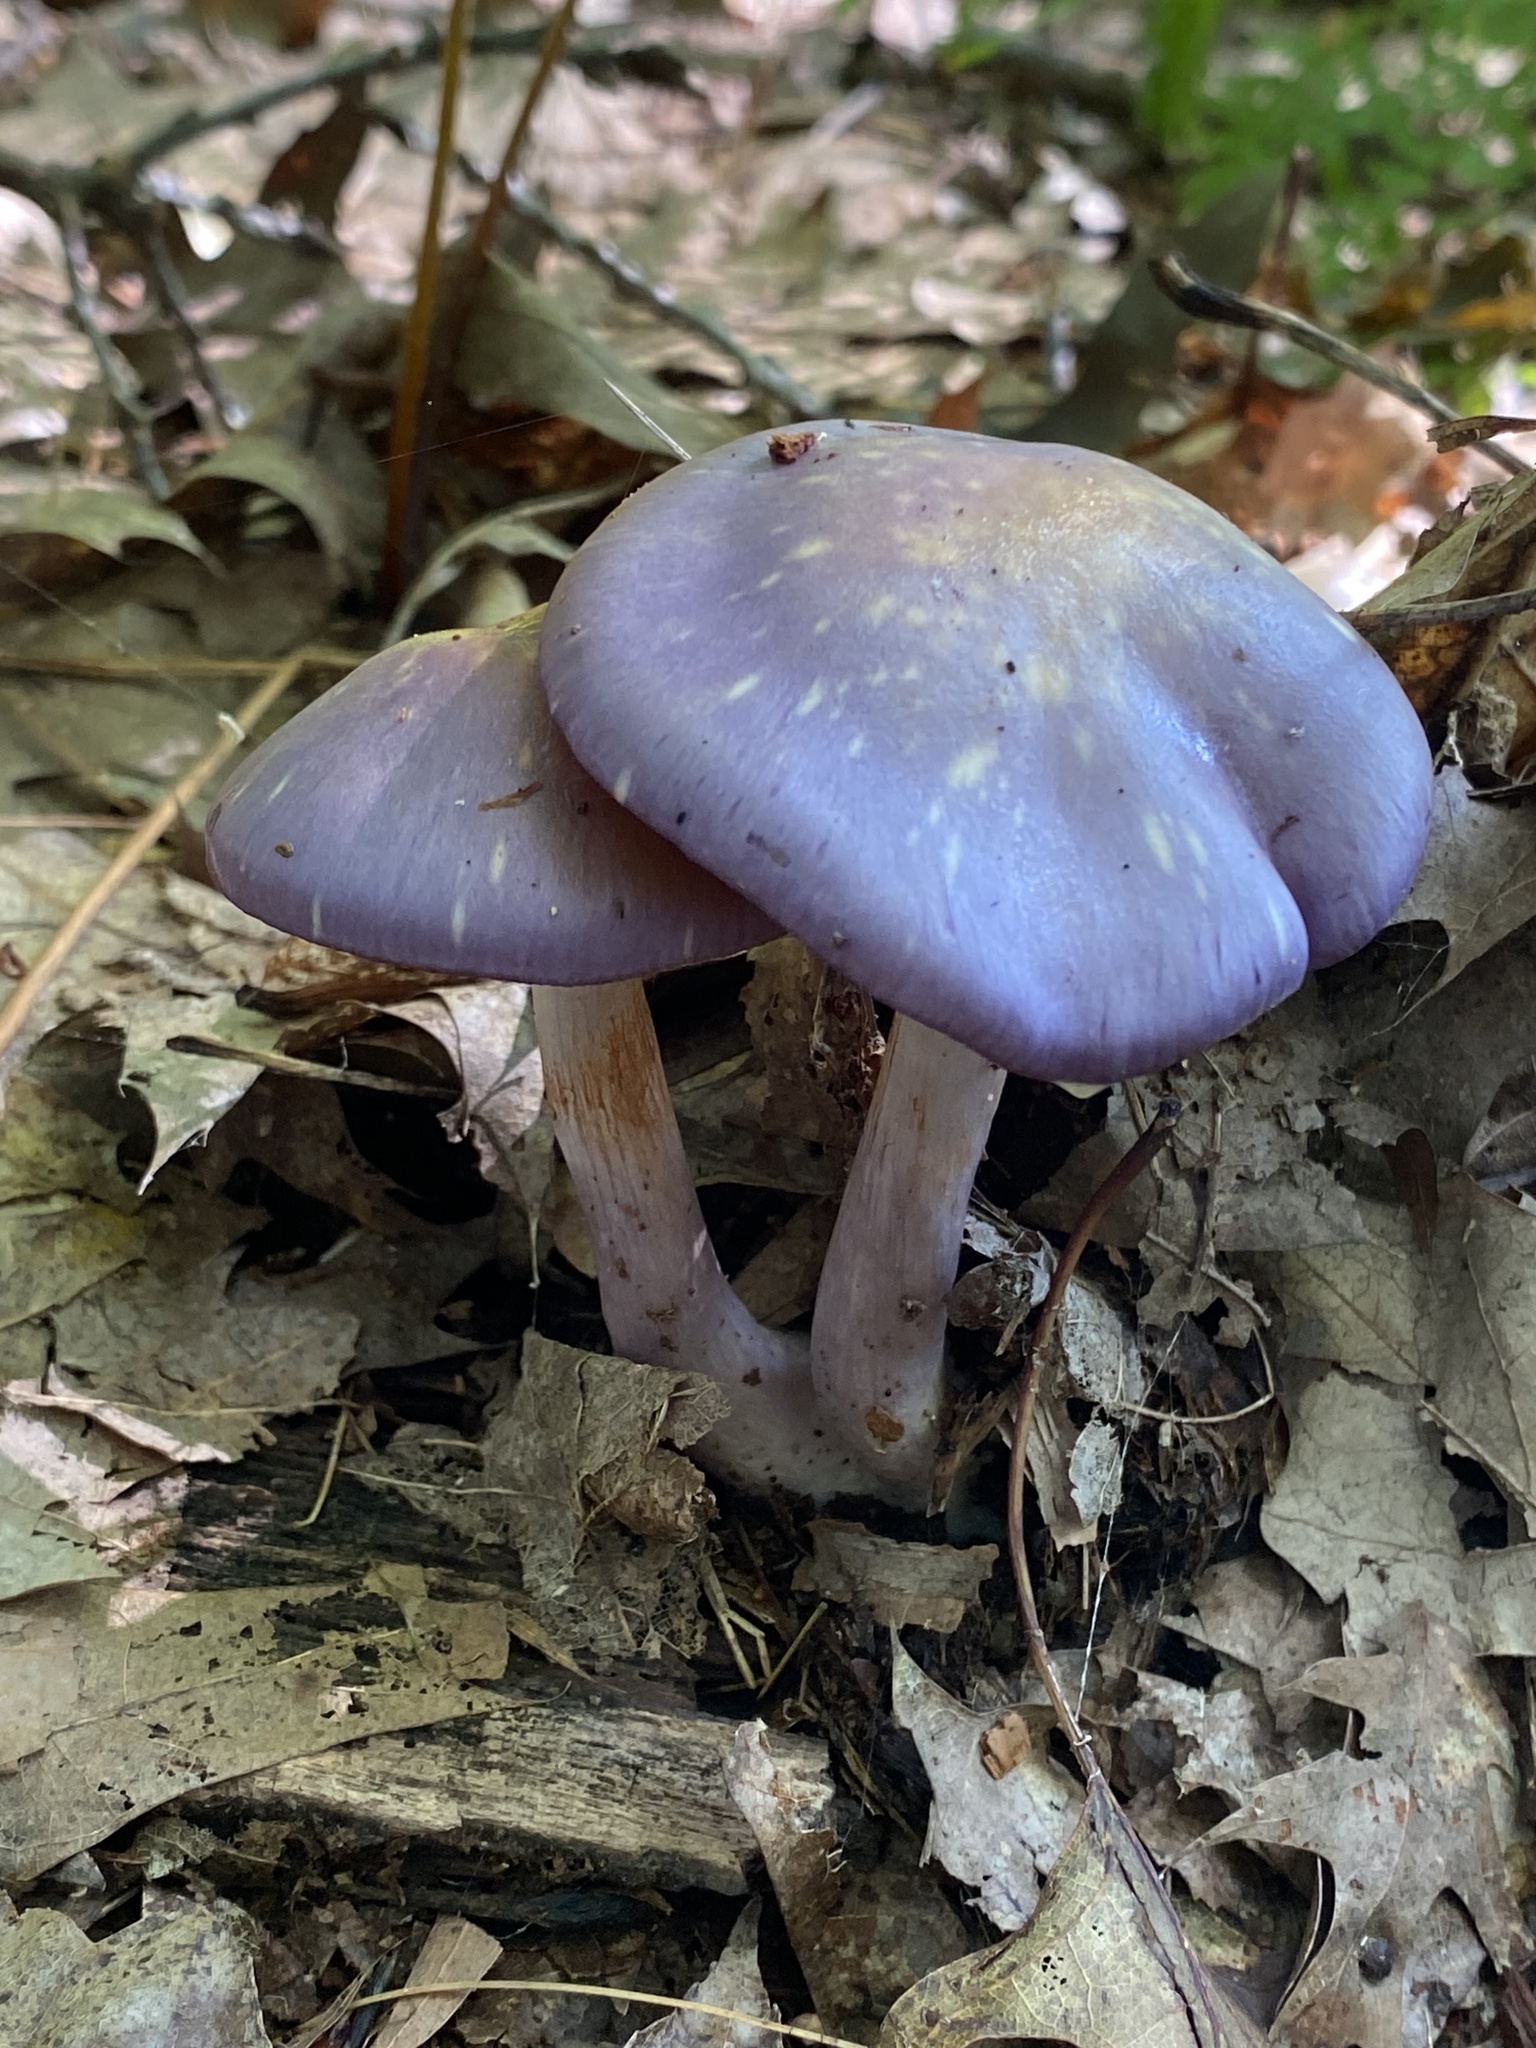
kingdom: Fungi
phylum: Basidiomycota
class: Agaricomycetes
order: Agaricales
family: Cortinariaceae
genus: Cortinarius
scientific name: Cortinarius iodes
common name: Viscid violet cort
